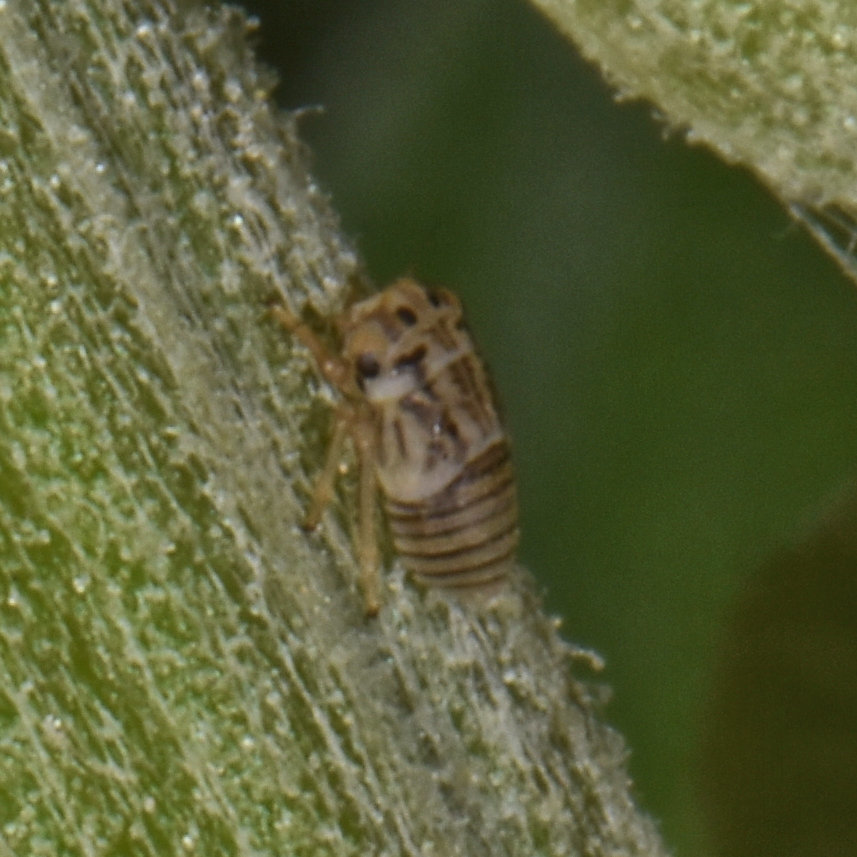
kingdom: Animalia
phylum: Arthropoda
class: Insecta
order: Hemiptera
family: Cicadellidae
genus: Agalliopsis
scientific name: Agalliopsis novella
